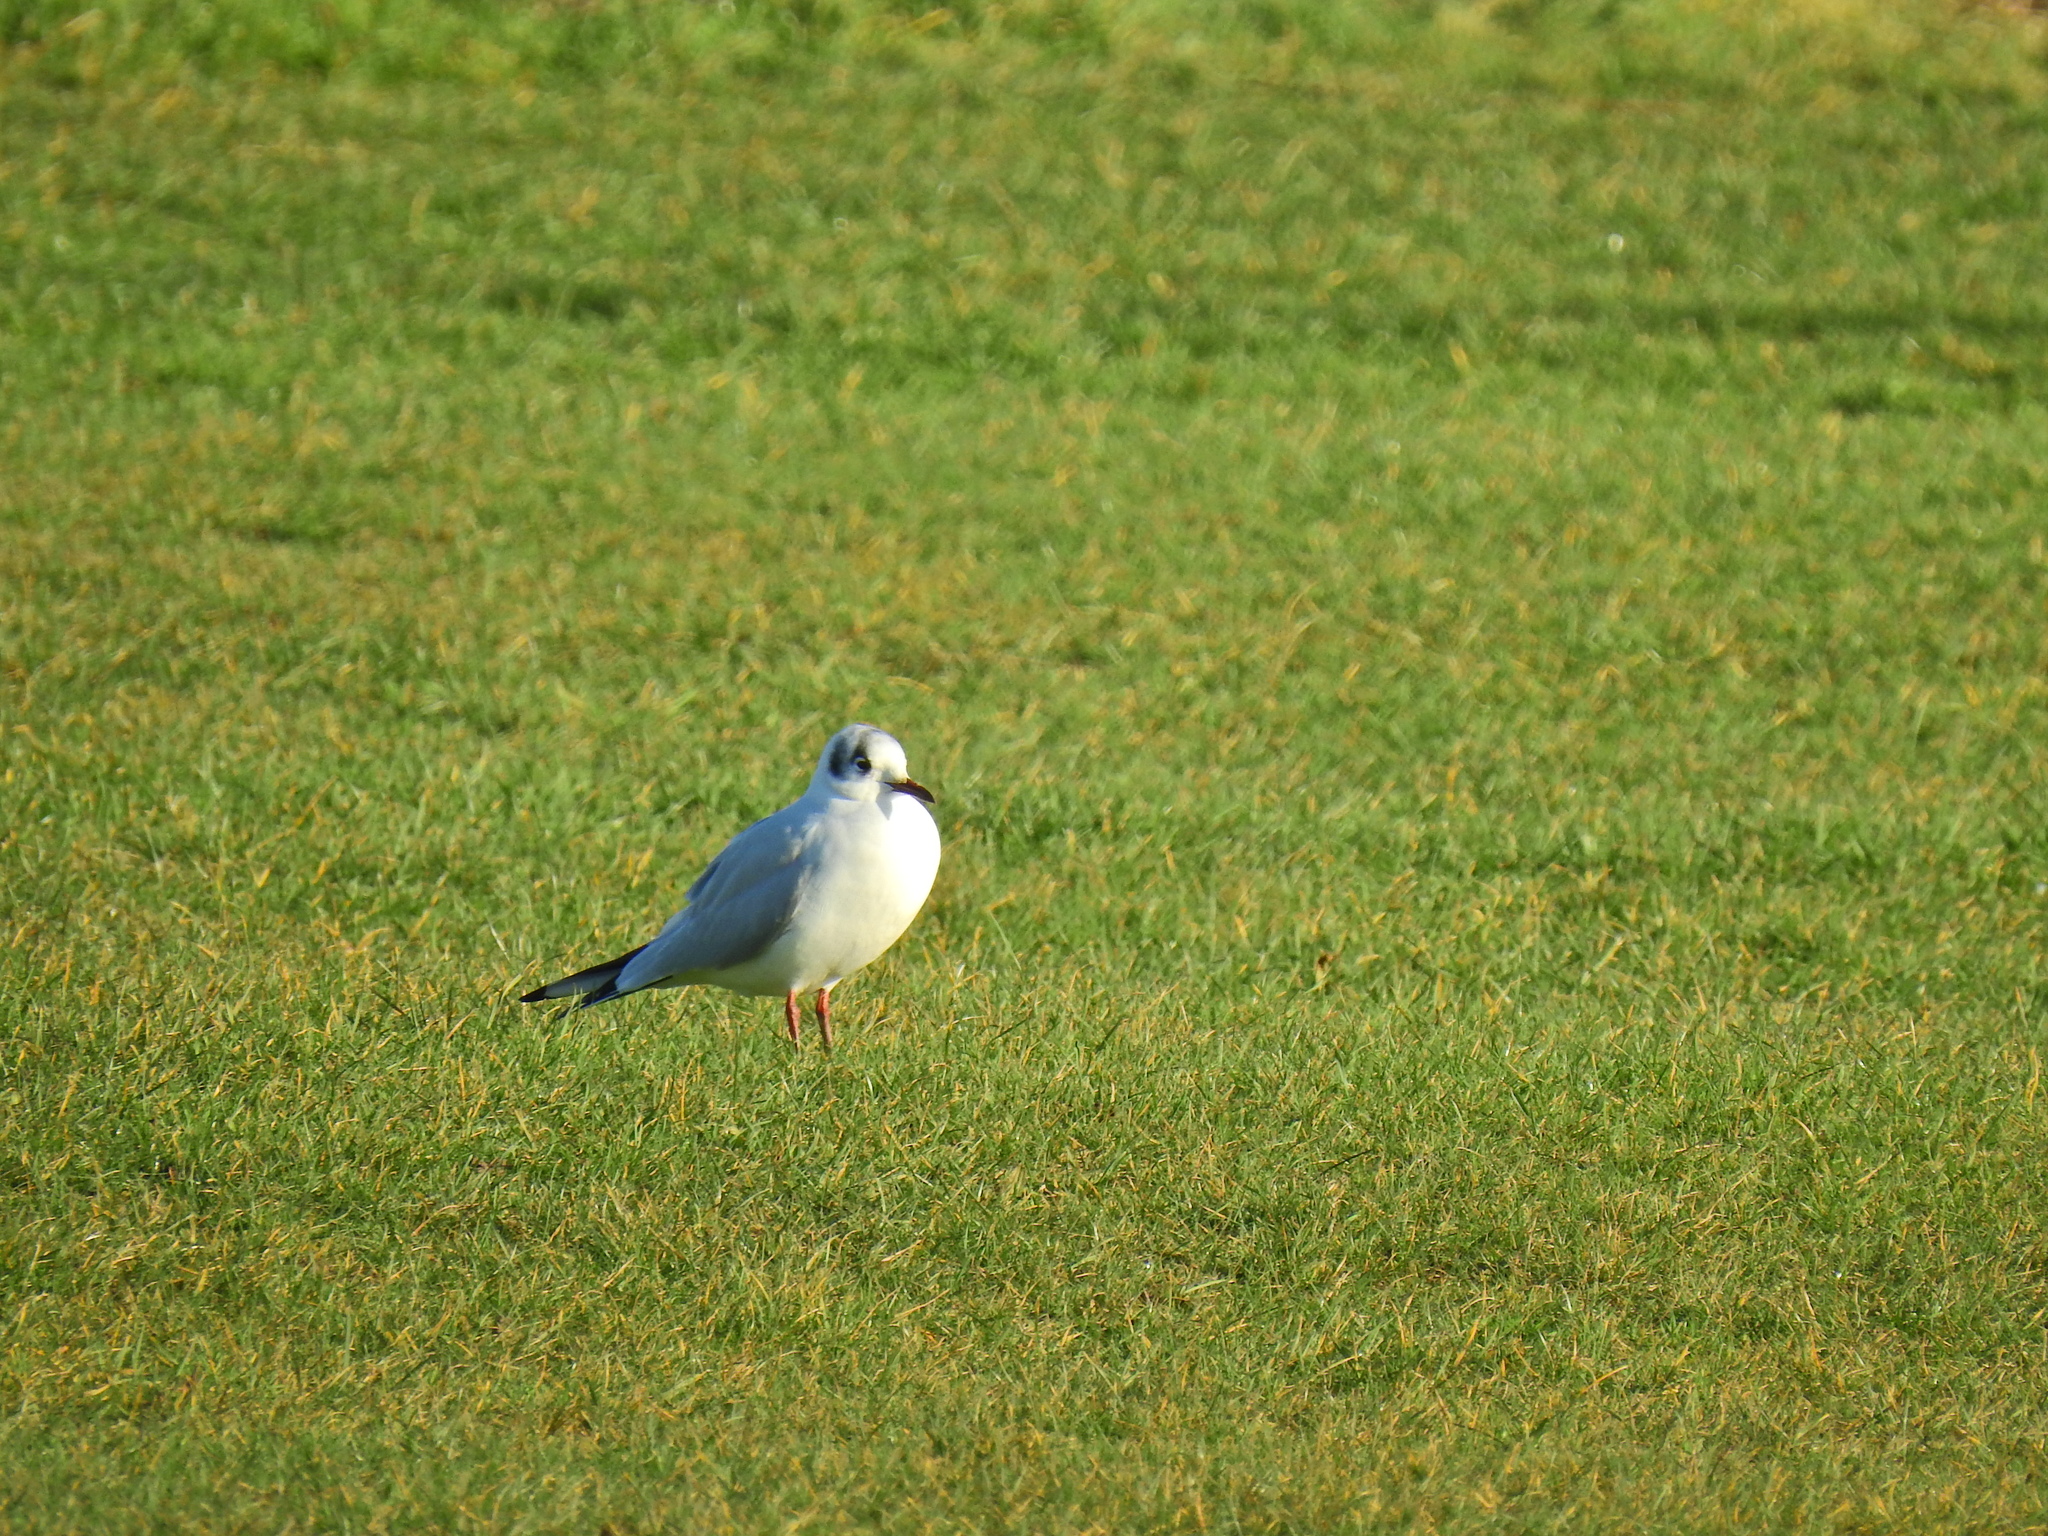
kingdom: Animalia
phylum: Chordata
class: Aves
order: Charadriiformes
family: Laridae
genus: Chroicocephalus
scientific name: Chroicocephalus ridibundus
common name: Black-headed gull
